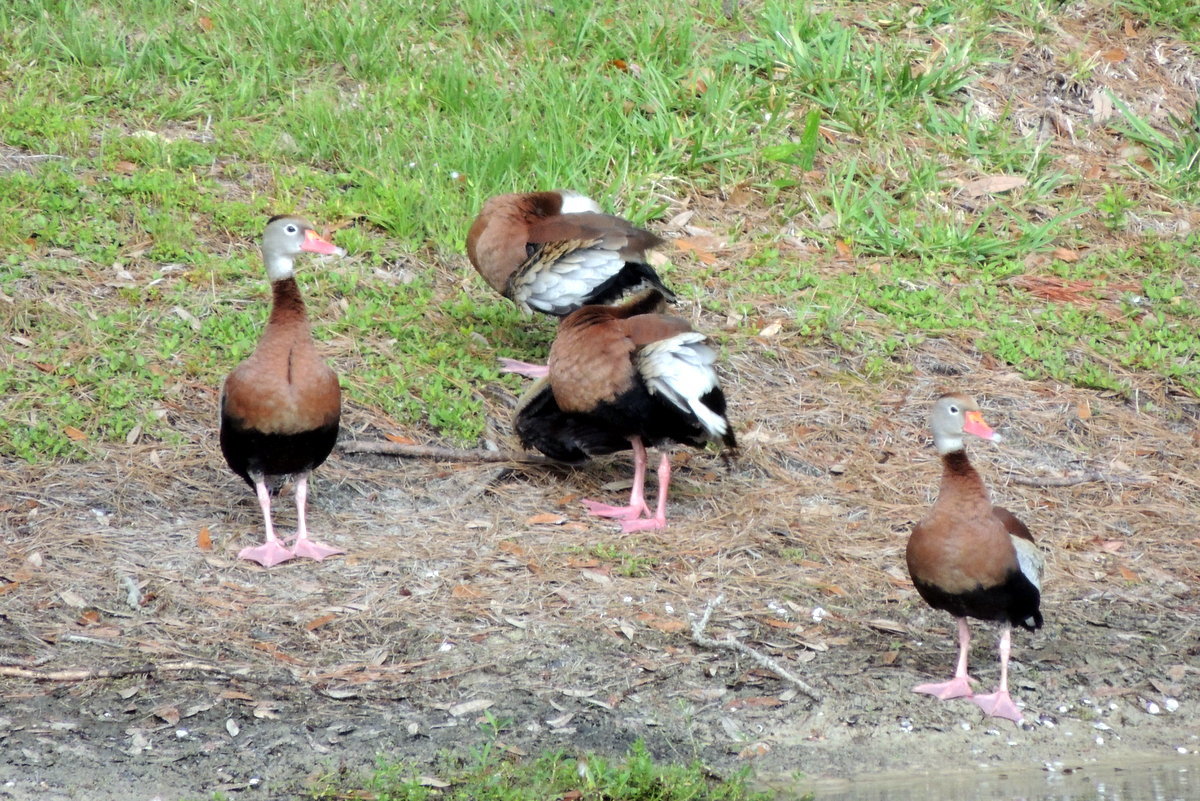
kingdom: Animalia
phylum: Chordata
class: Aves
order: Anseriformes
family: Anatidae
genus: Dendrocygna
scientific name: Dendrocygna autumnalis
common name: Black-bellied whistling duck
